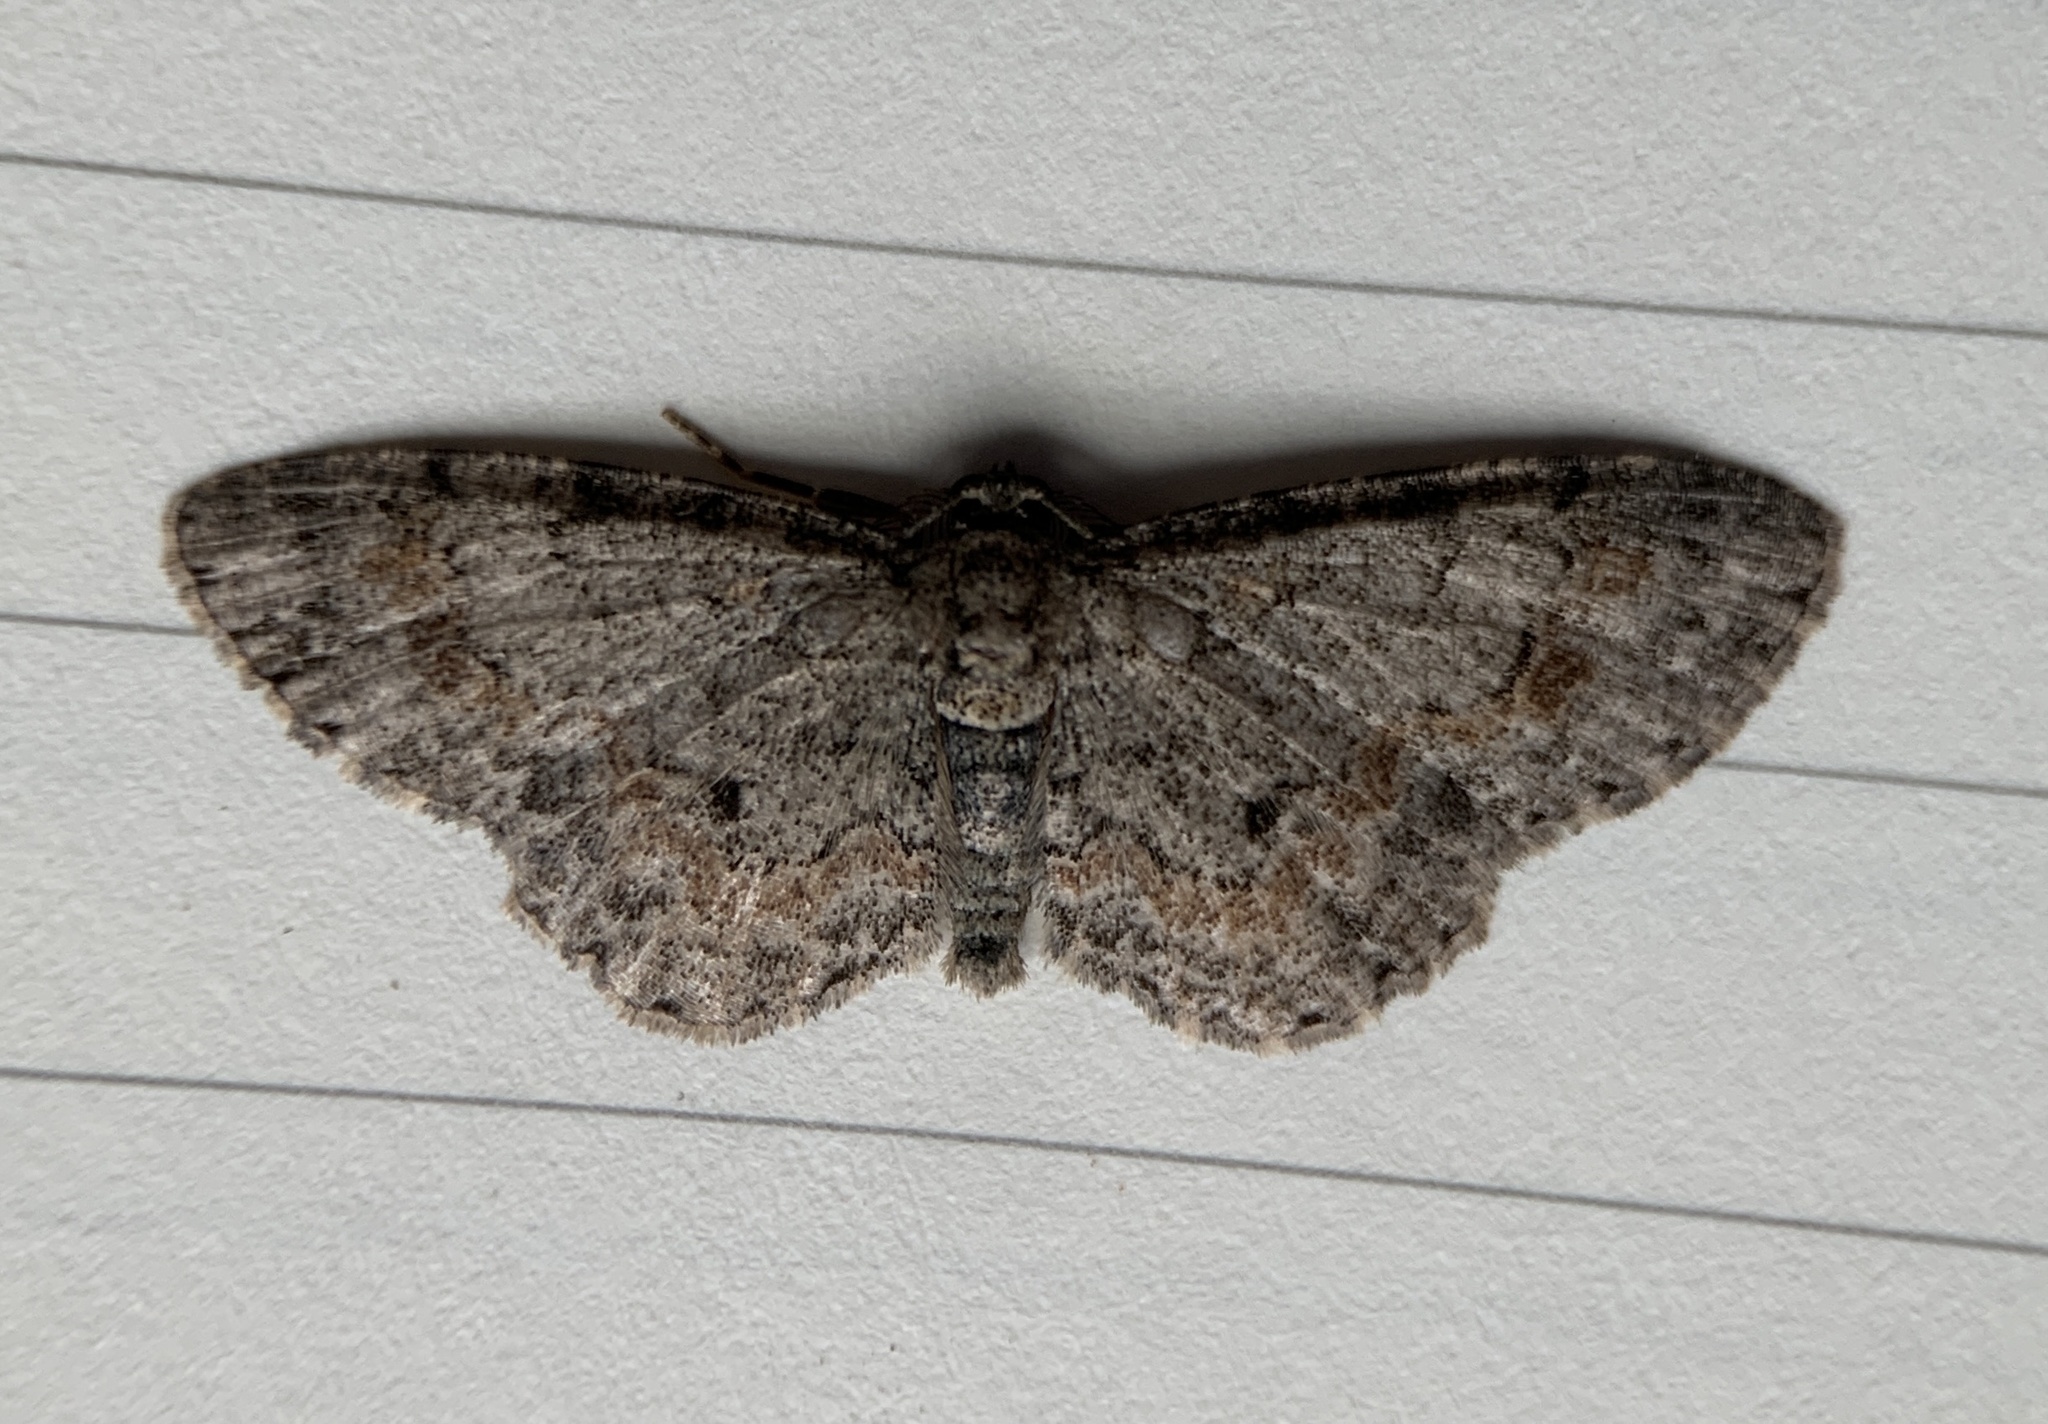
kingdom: Animalia
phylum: Arthropoda
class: Insecta
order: Lepidoptera
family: Geometridae
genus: Glenoides
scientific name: Glenoides texanaria
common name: Texas gray
